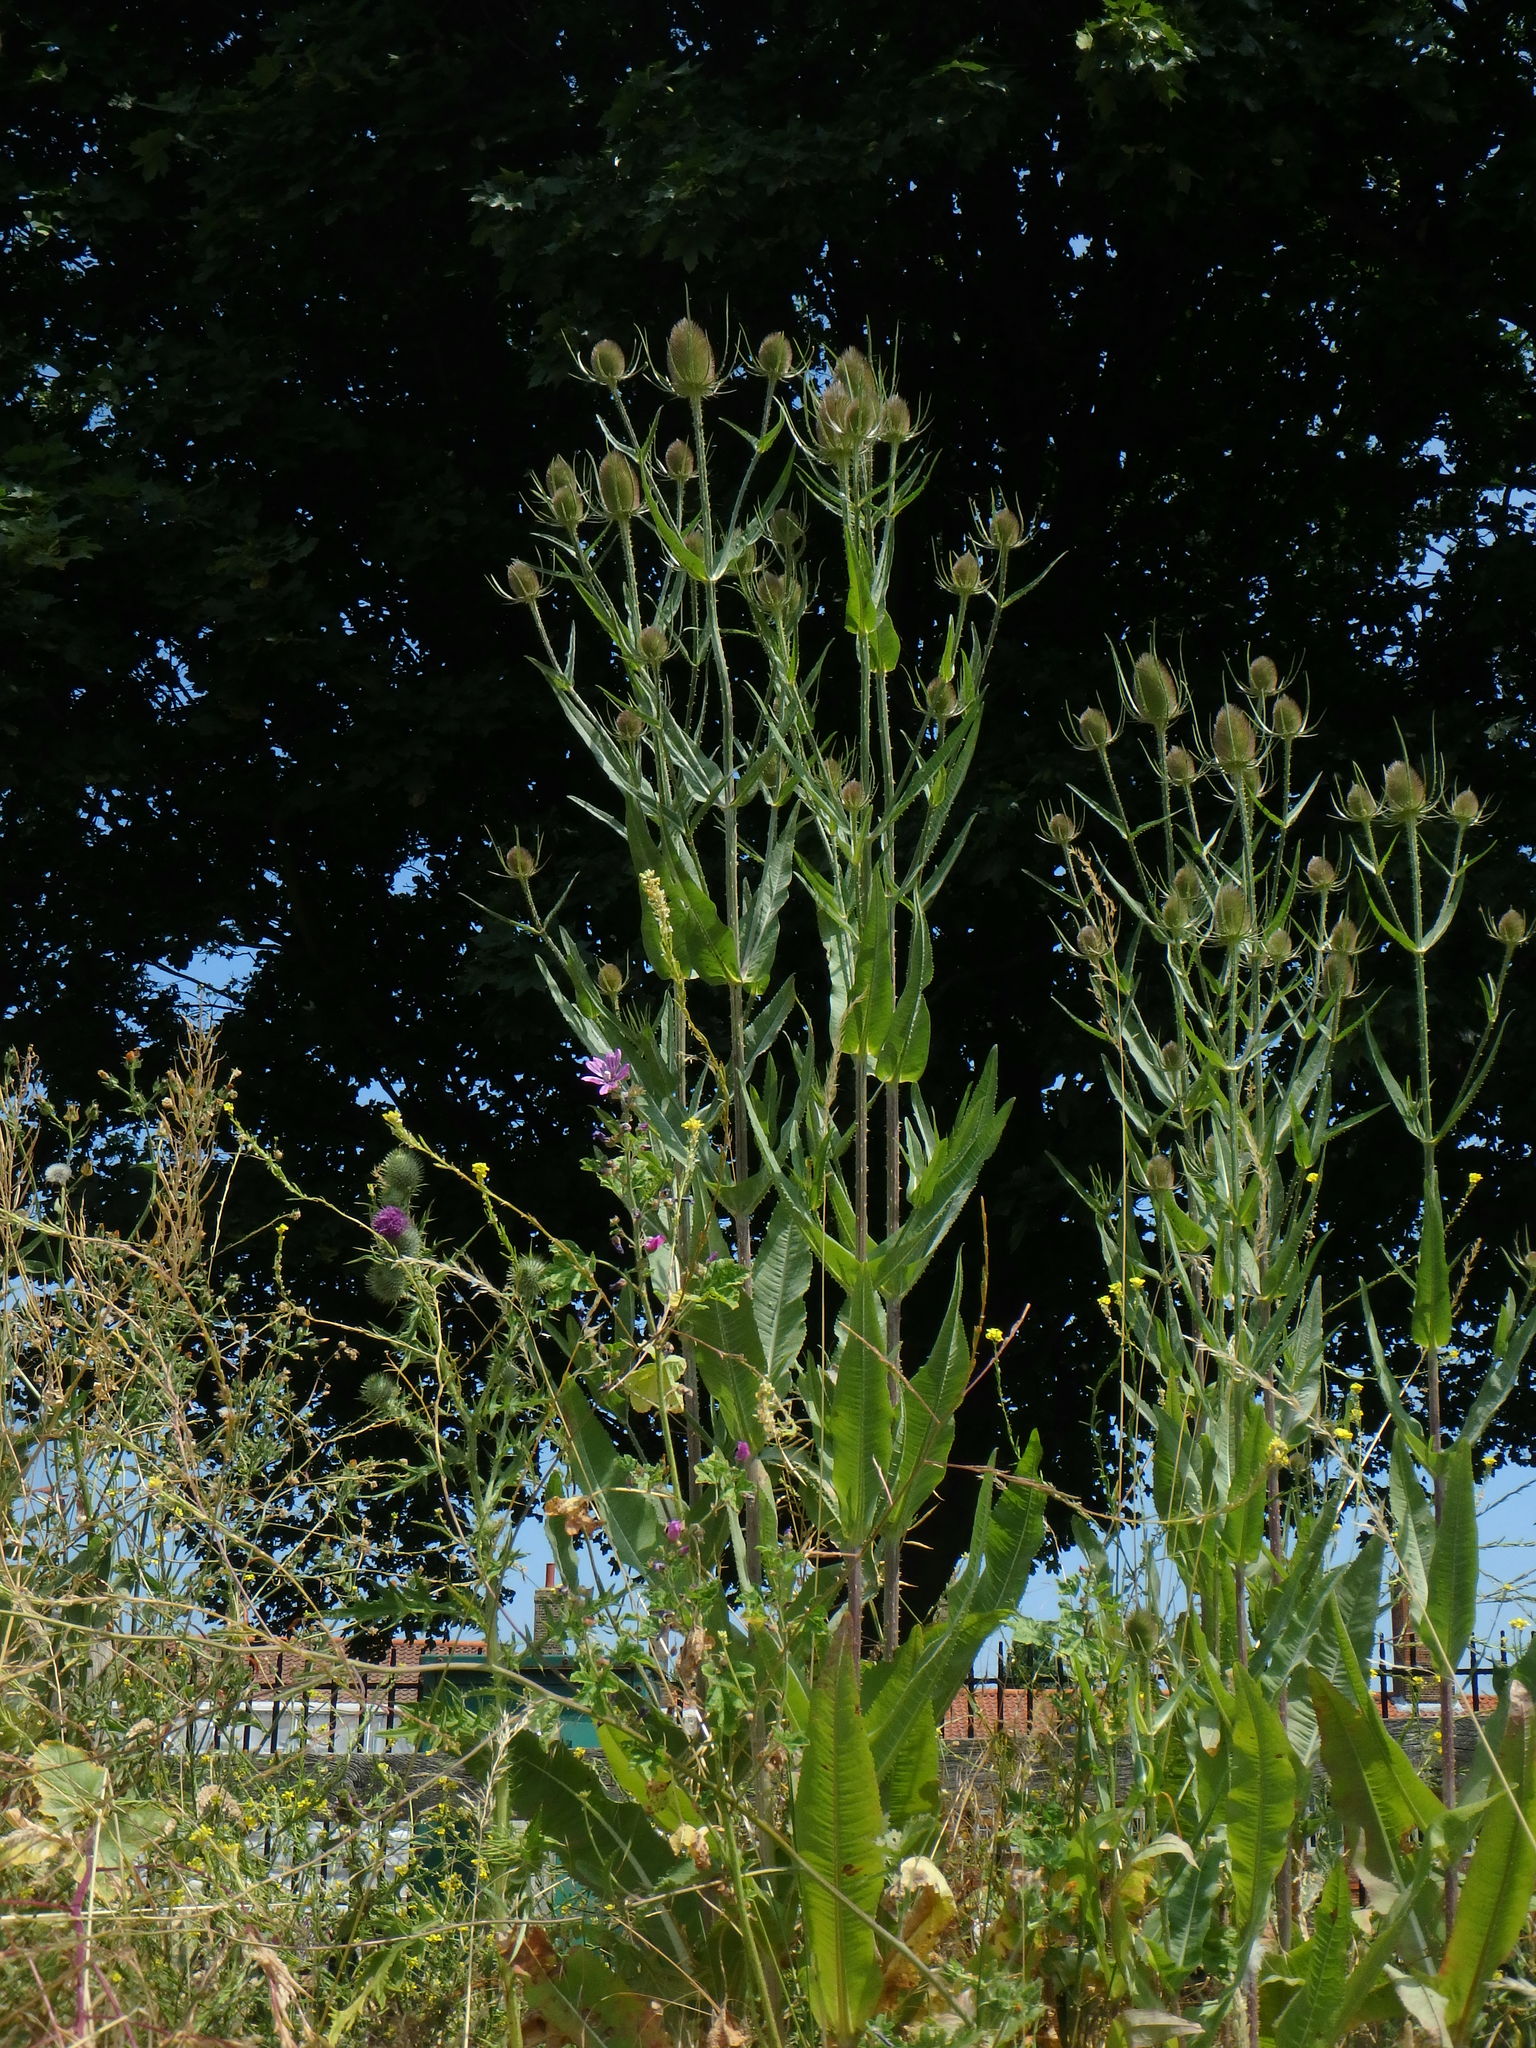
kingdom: Plantae
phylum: Tracheophyta
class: Magnoliopsida
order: Dipsacales
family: Caprifoliaceae
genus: Dipsacus
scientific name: Dipsacus fullonum
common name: Teasel
